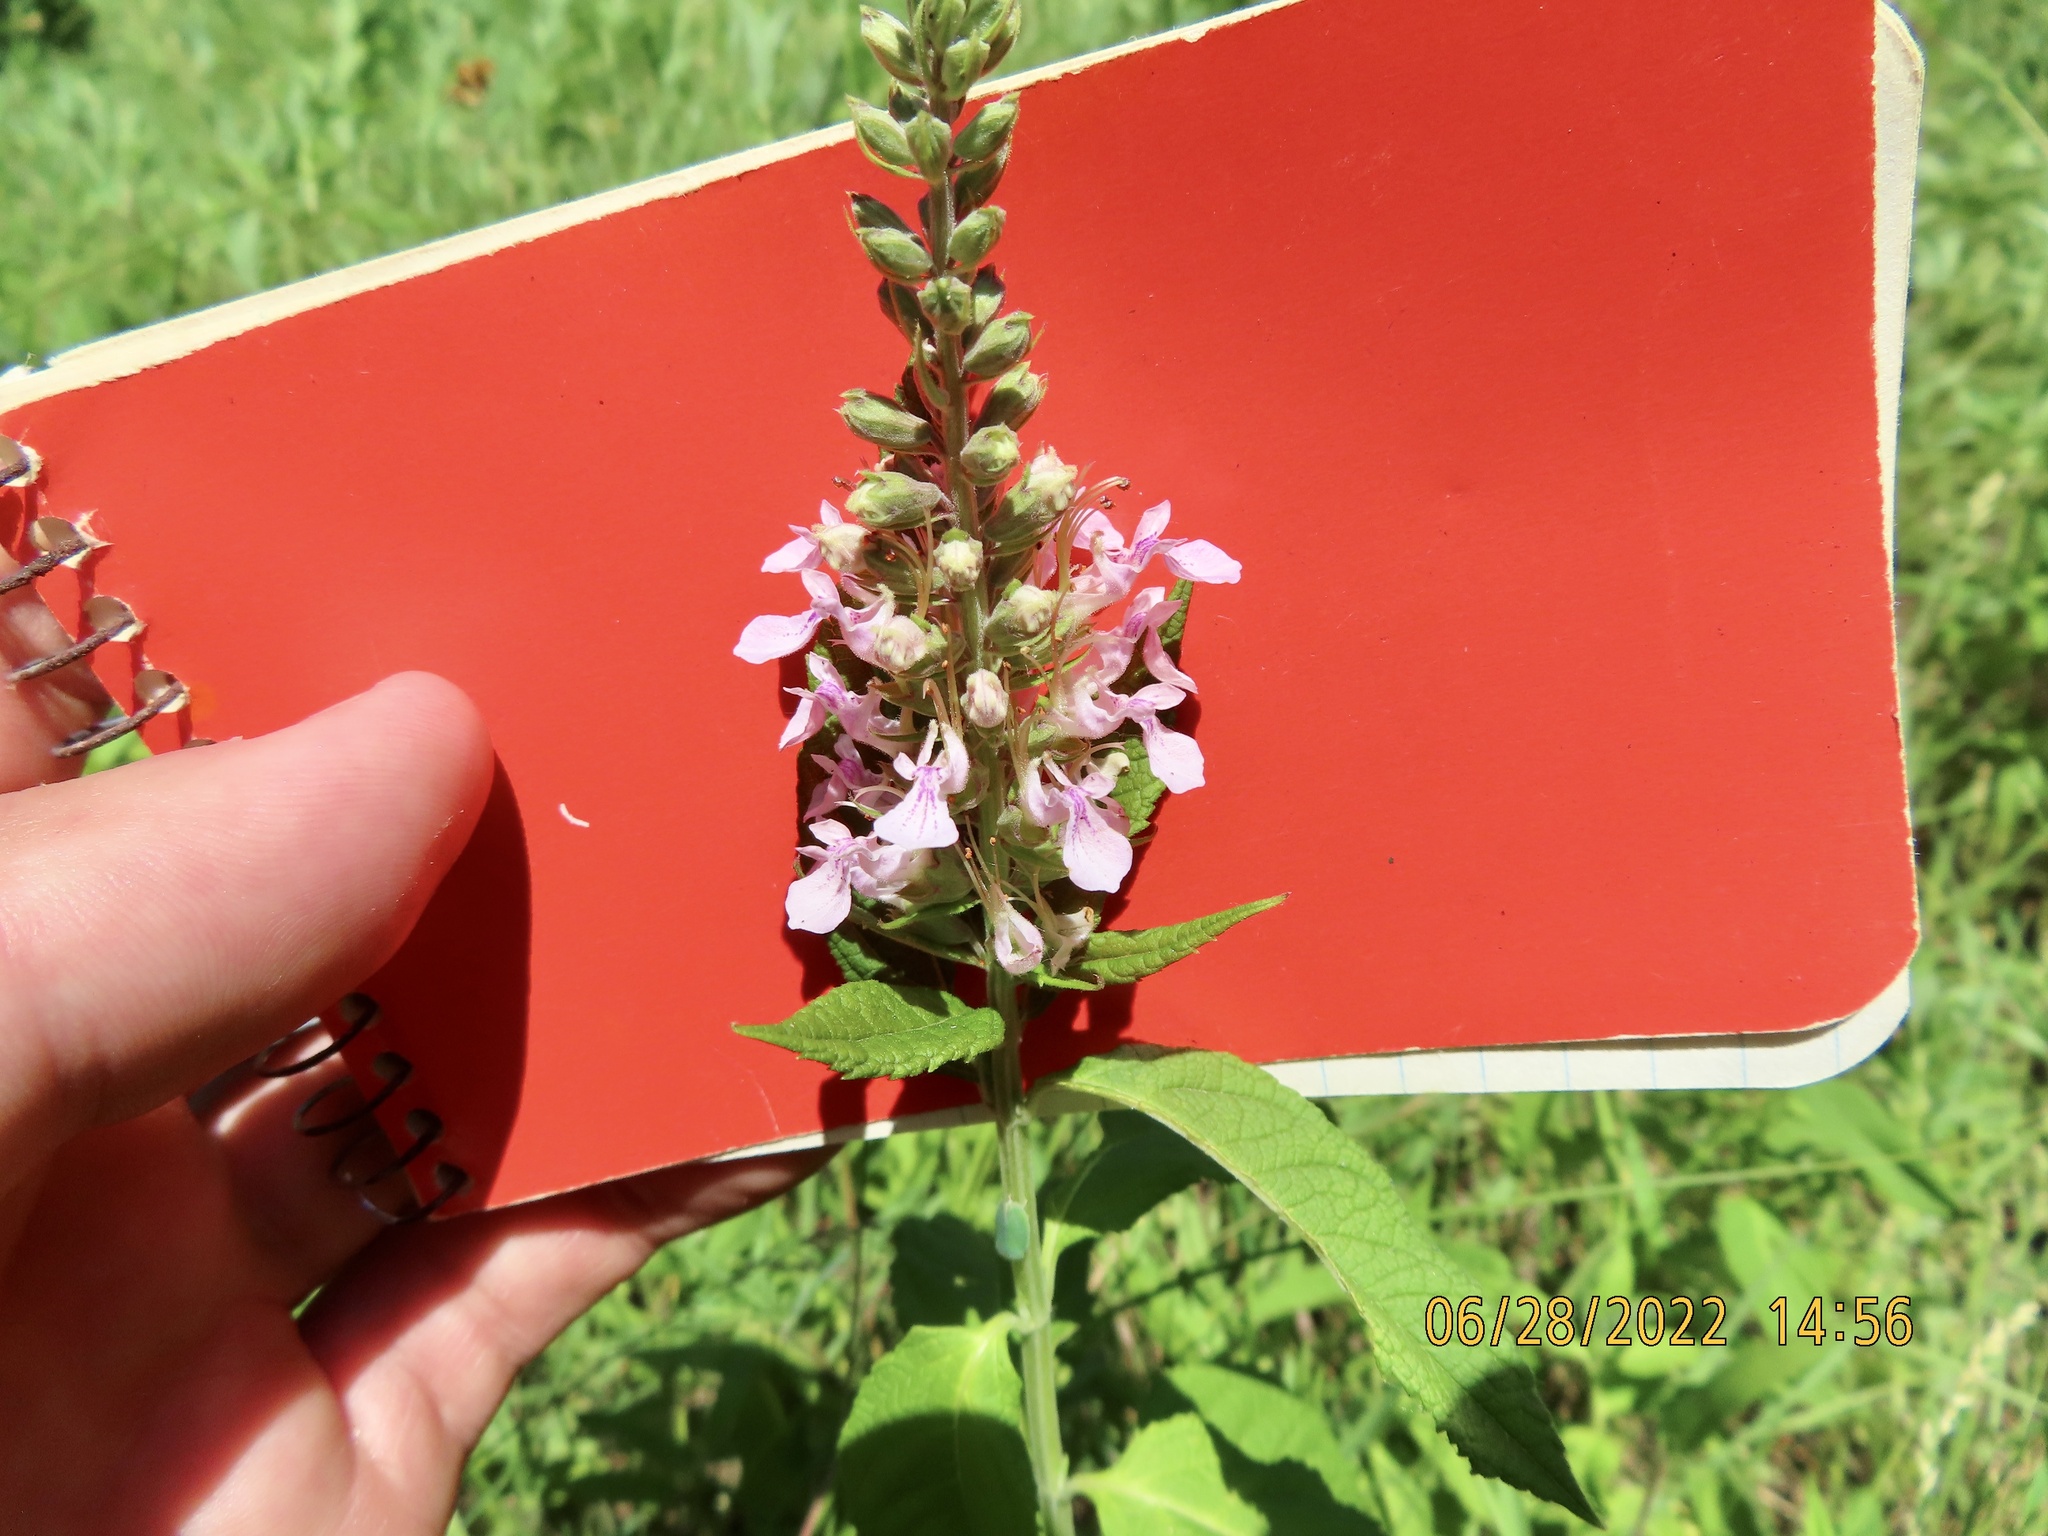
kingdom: Plantae
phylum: Tracheophyta
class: Magnoliopsida
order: Lamiales
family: Lamiaceae
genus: Teucrium
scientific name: Teucrium canadense
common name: American germander
